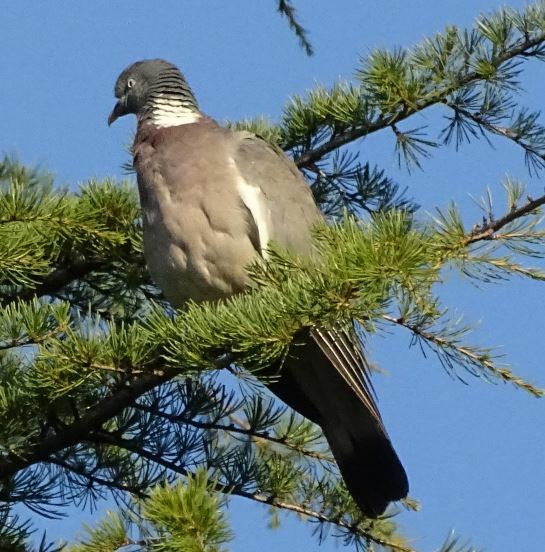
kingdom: Animalia
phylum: Chordata
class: Aves
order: Columbiformes
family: Columbidae
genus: Columba
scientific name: Columba palumbus
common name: Common wood pigeon
